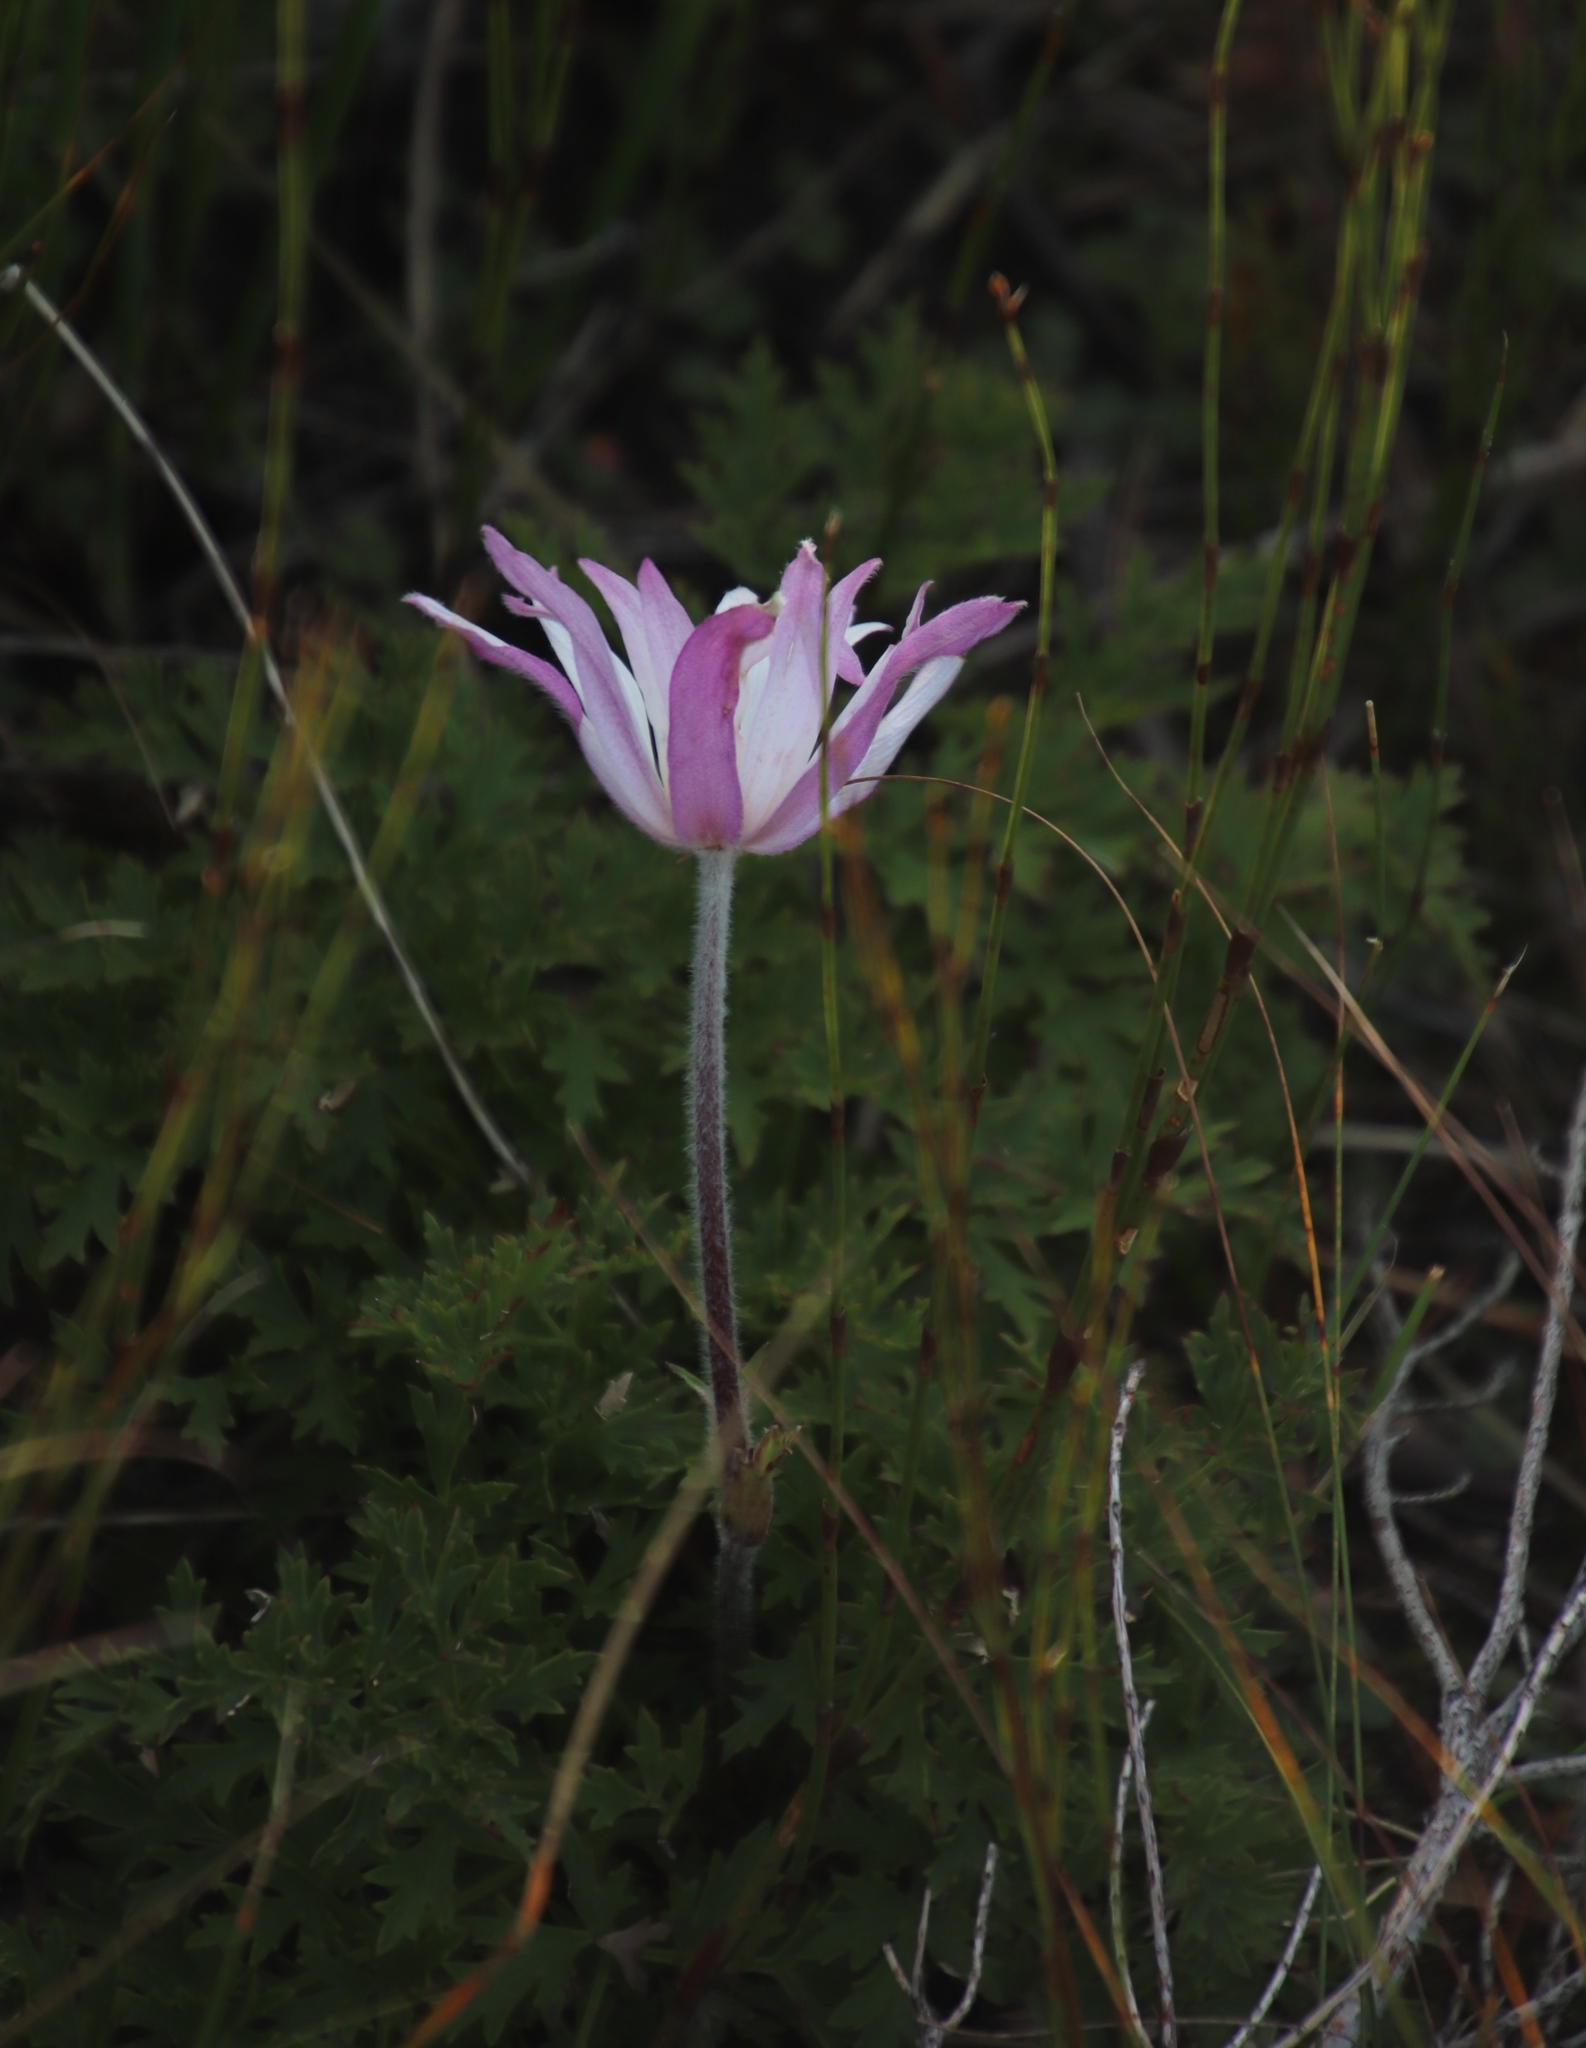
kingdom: Plantae
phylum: Tracheophyta
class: Magnoliopsida
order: Ranunculales
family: Ranunculaceae
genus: Knowltonia
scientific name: Knowltonia tenuifolia
